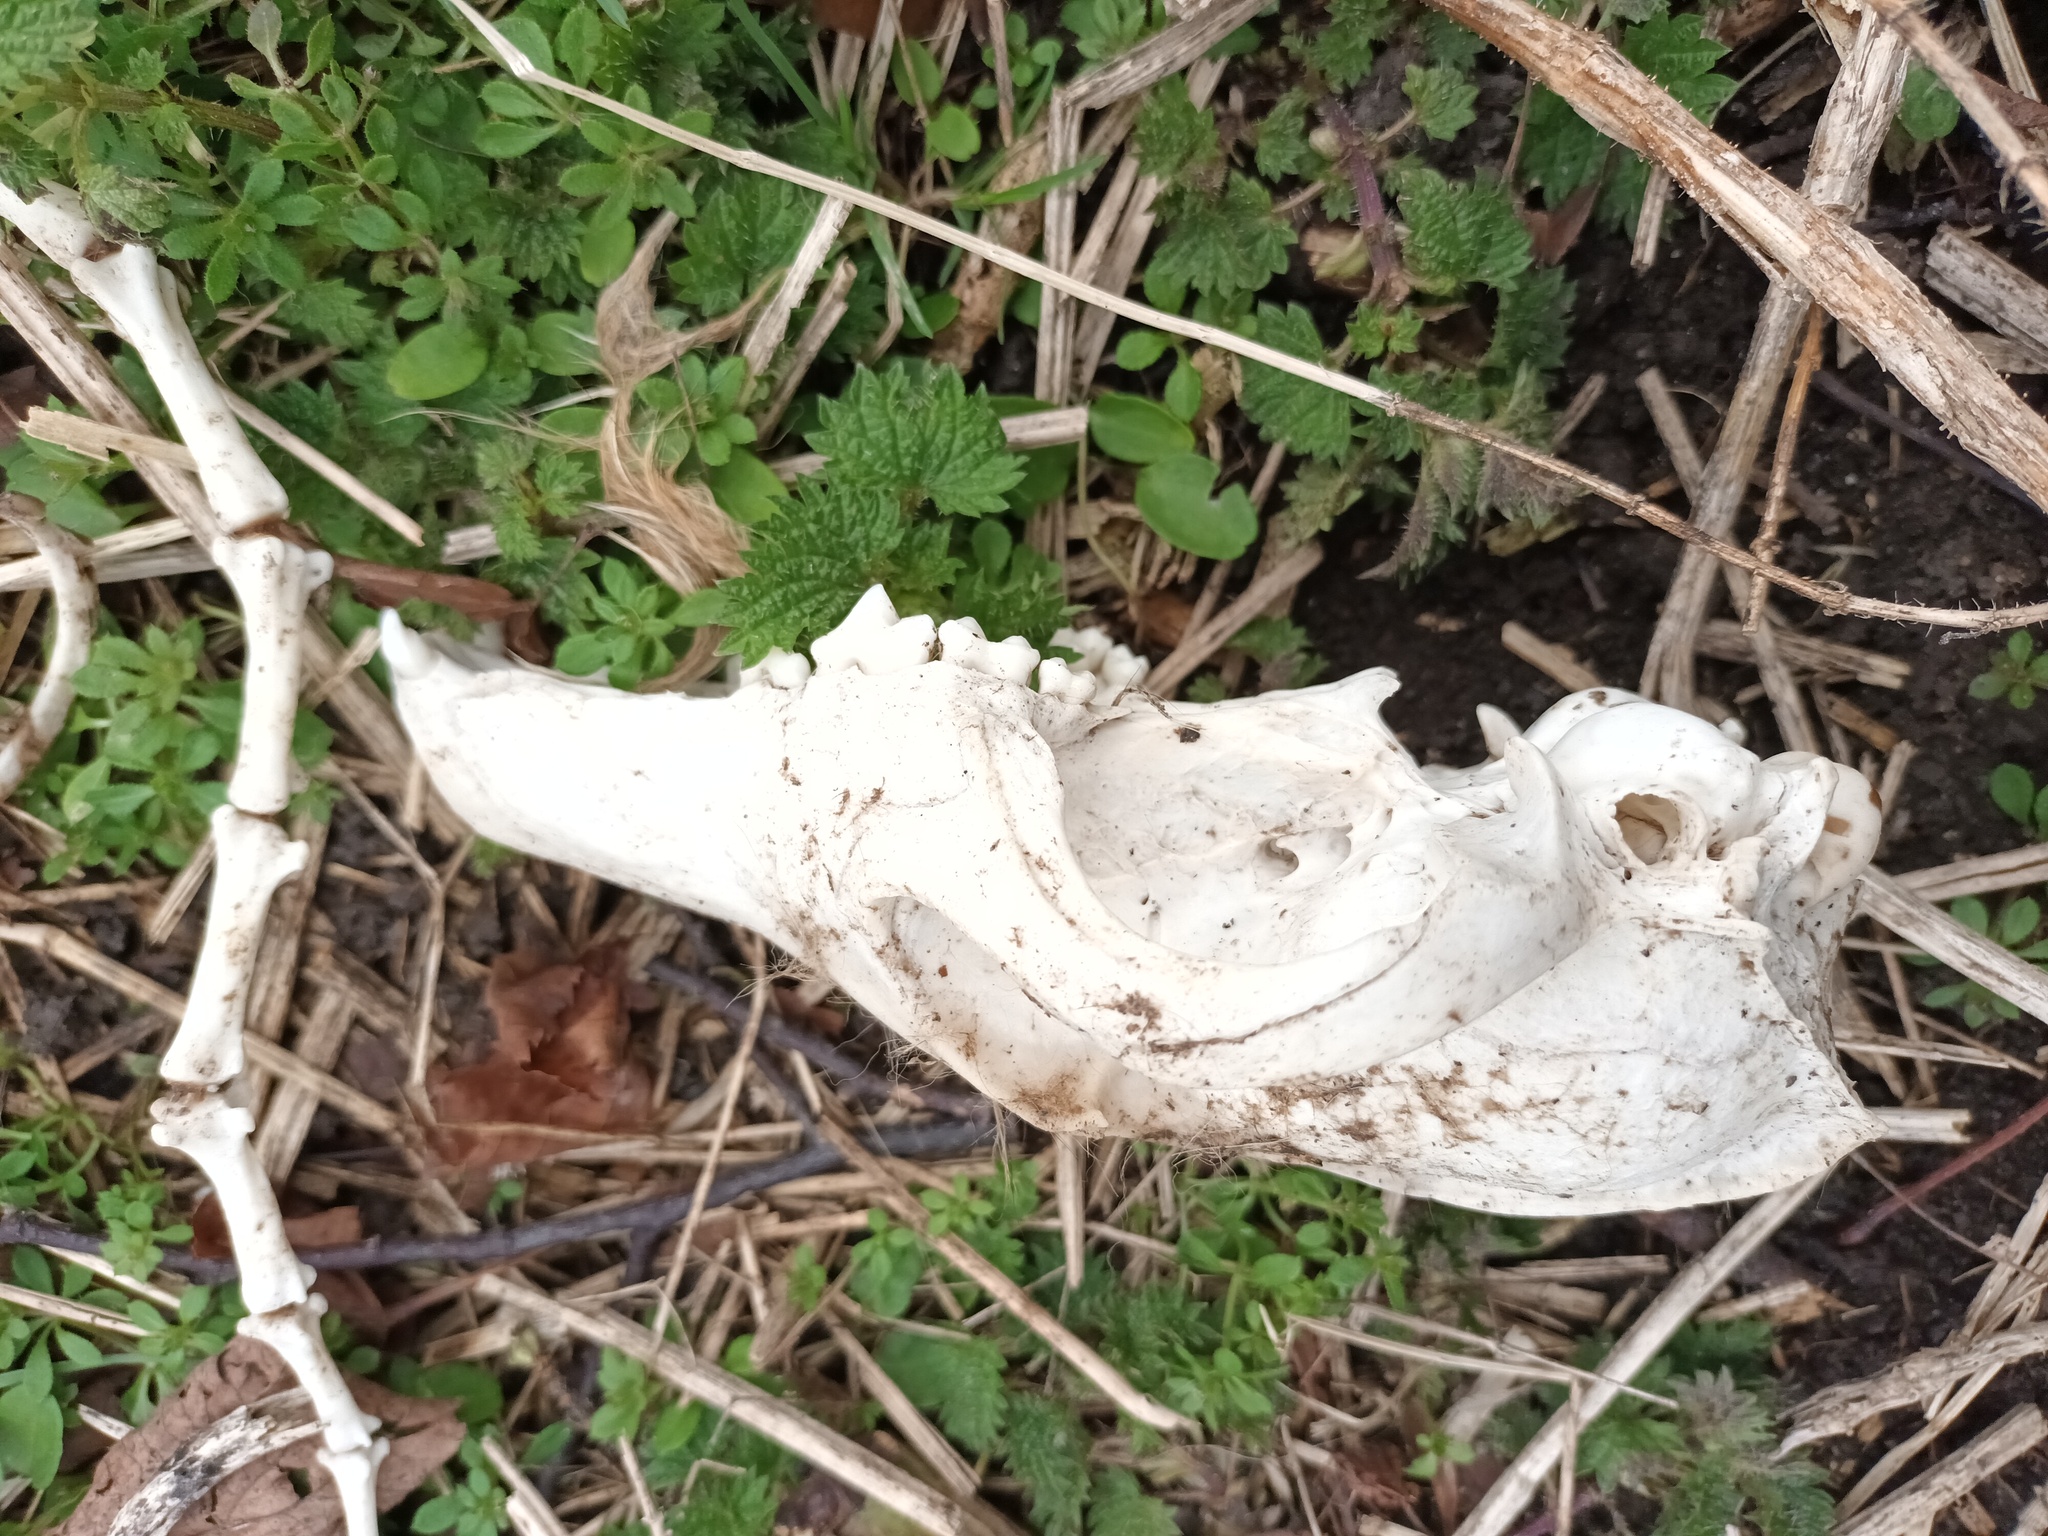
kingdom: Animalia
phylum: Chordata
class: Mammalia
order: Carnivora
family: Canidae
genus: Vulpes
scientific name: Vulpes vulpes
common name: Red fox
